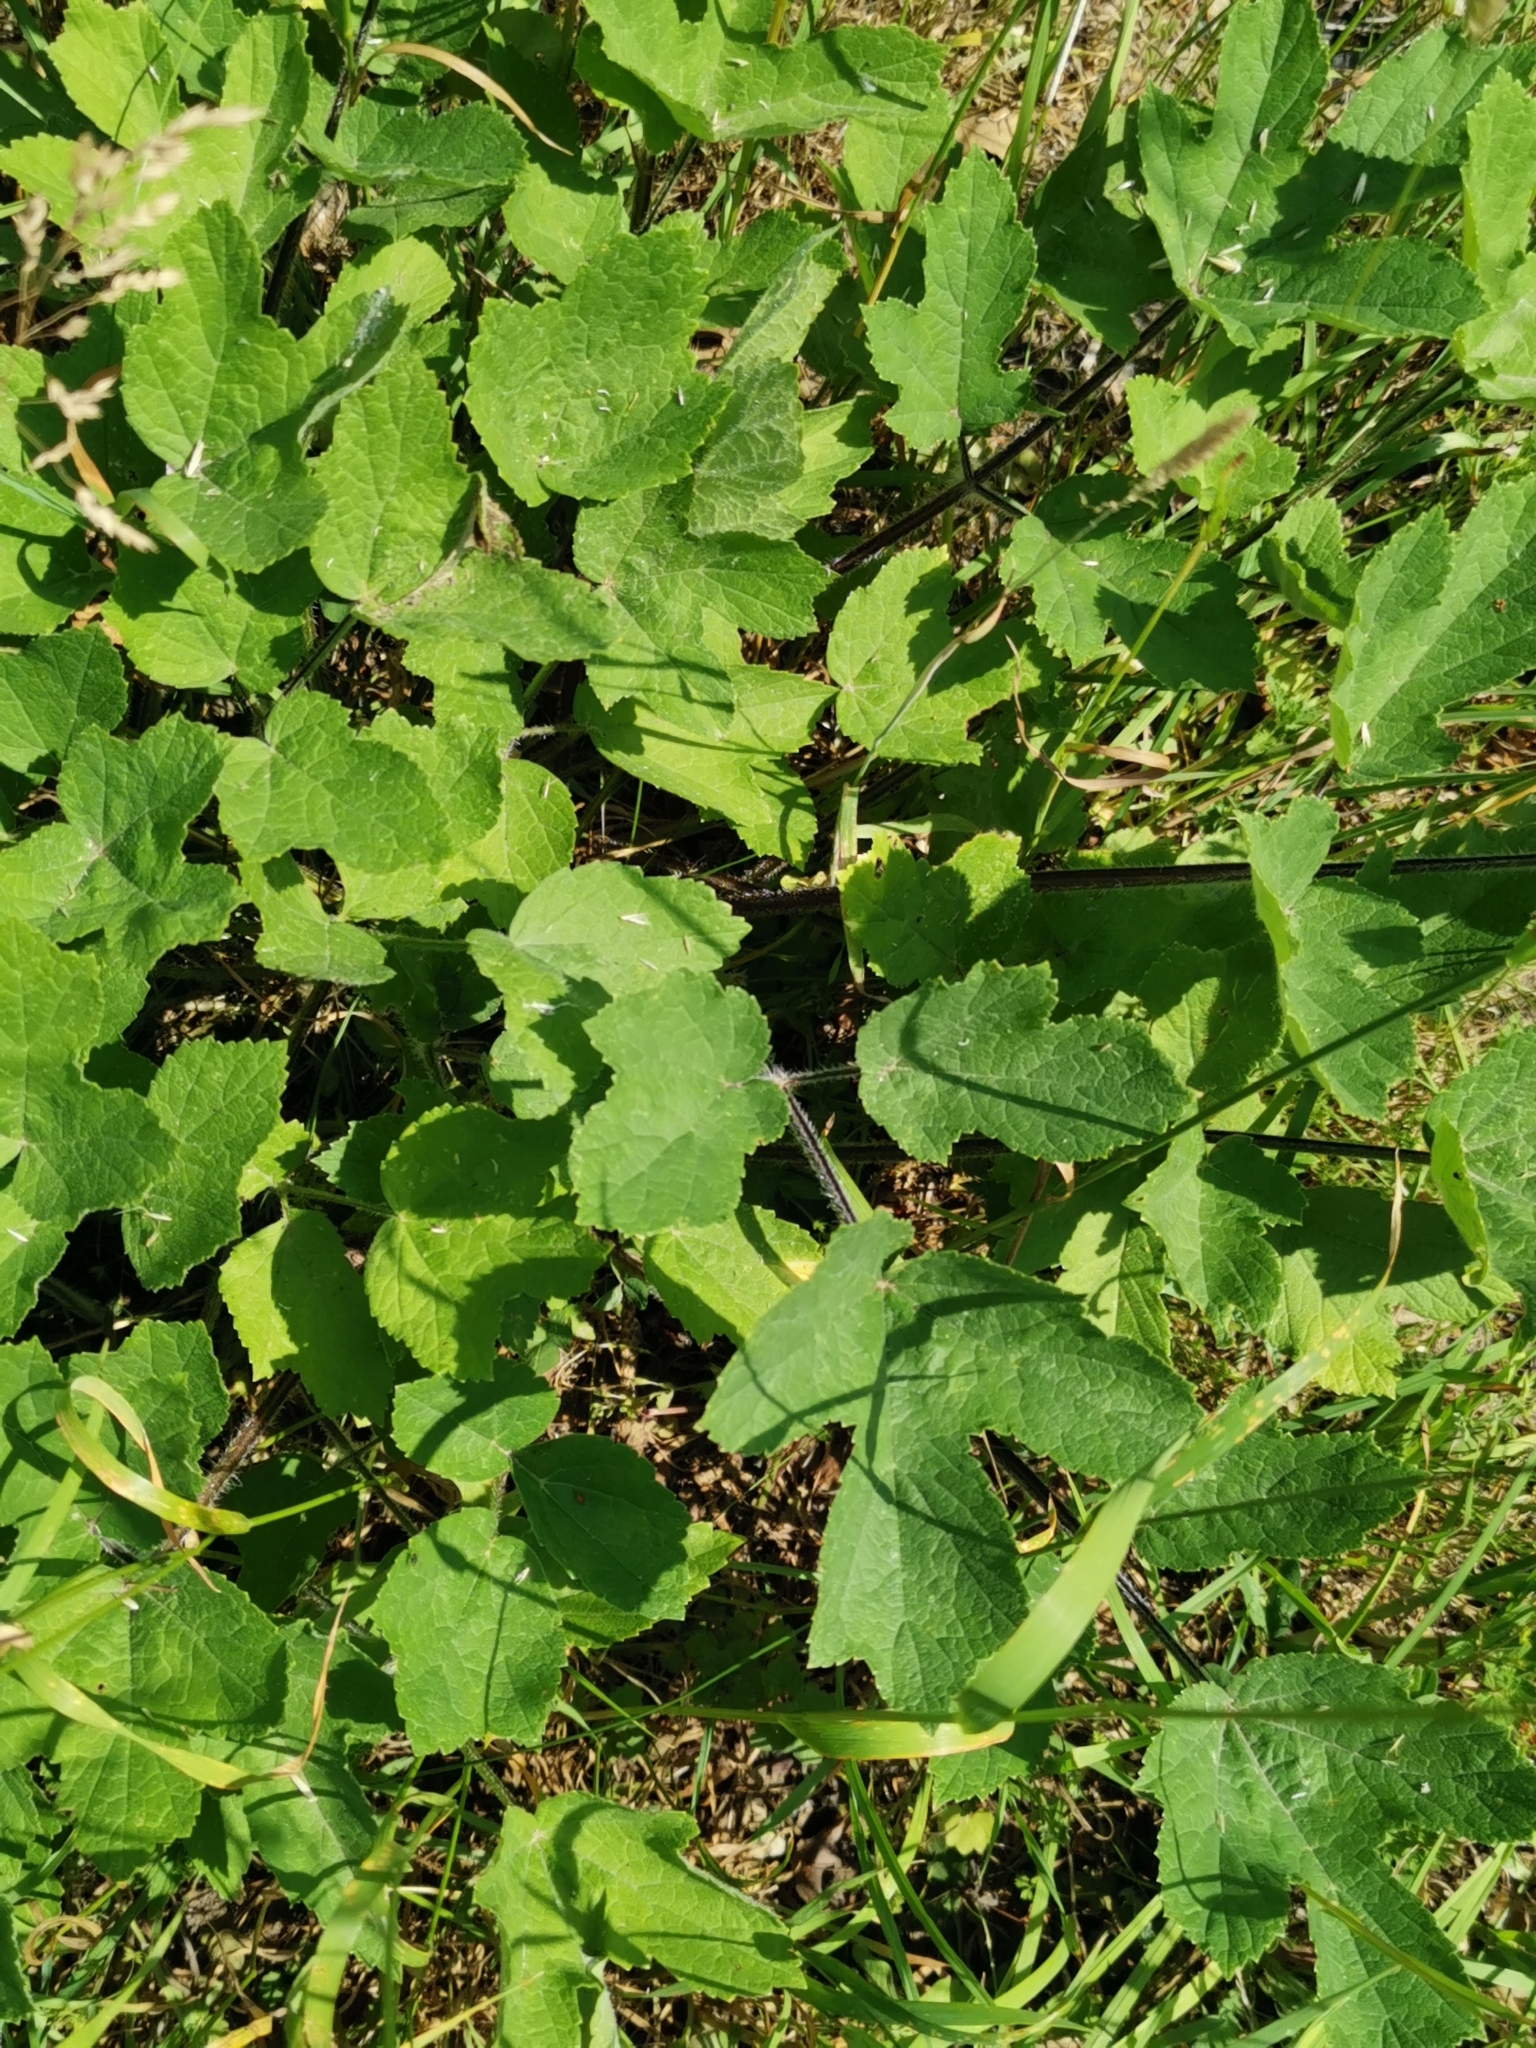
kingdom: Plantae
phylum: Tracheophyta
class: Magnoliopsida
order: Apiales
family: Apiaceae
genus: Heracleum
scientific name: Heracleum sphondylium
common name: Hogweed
